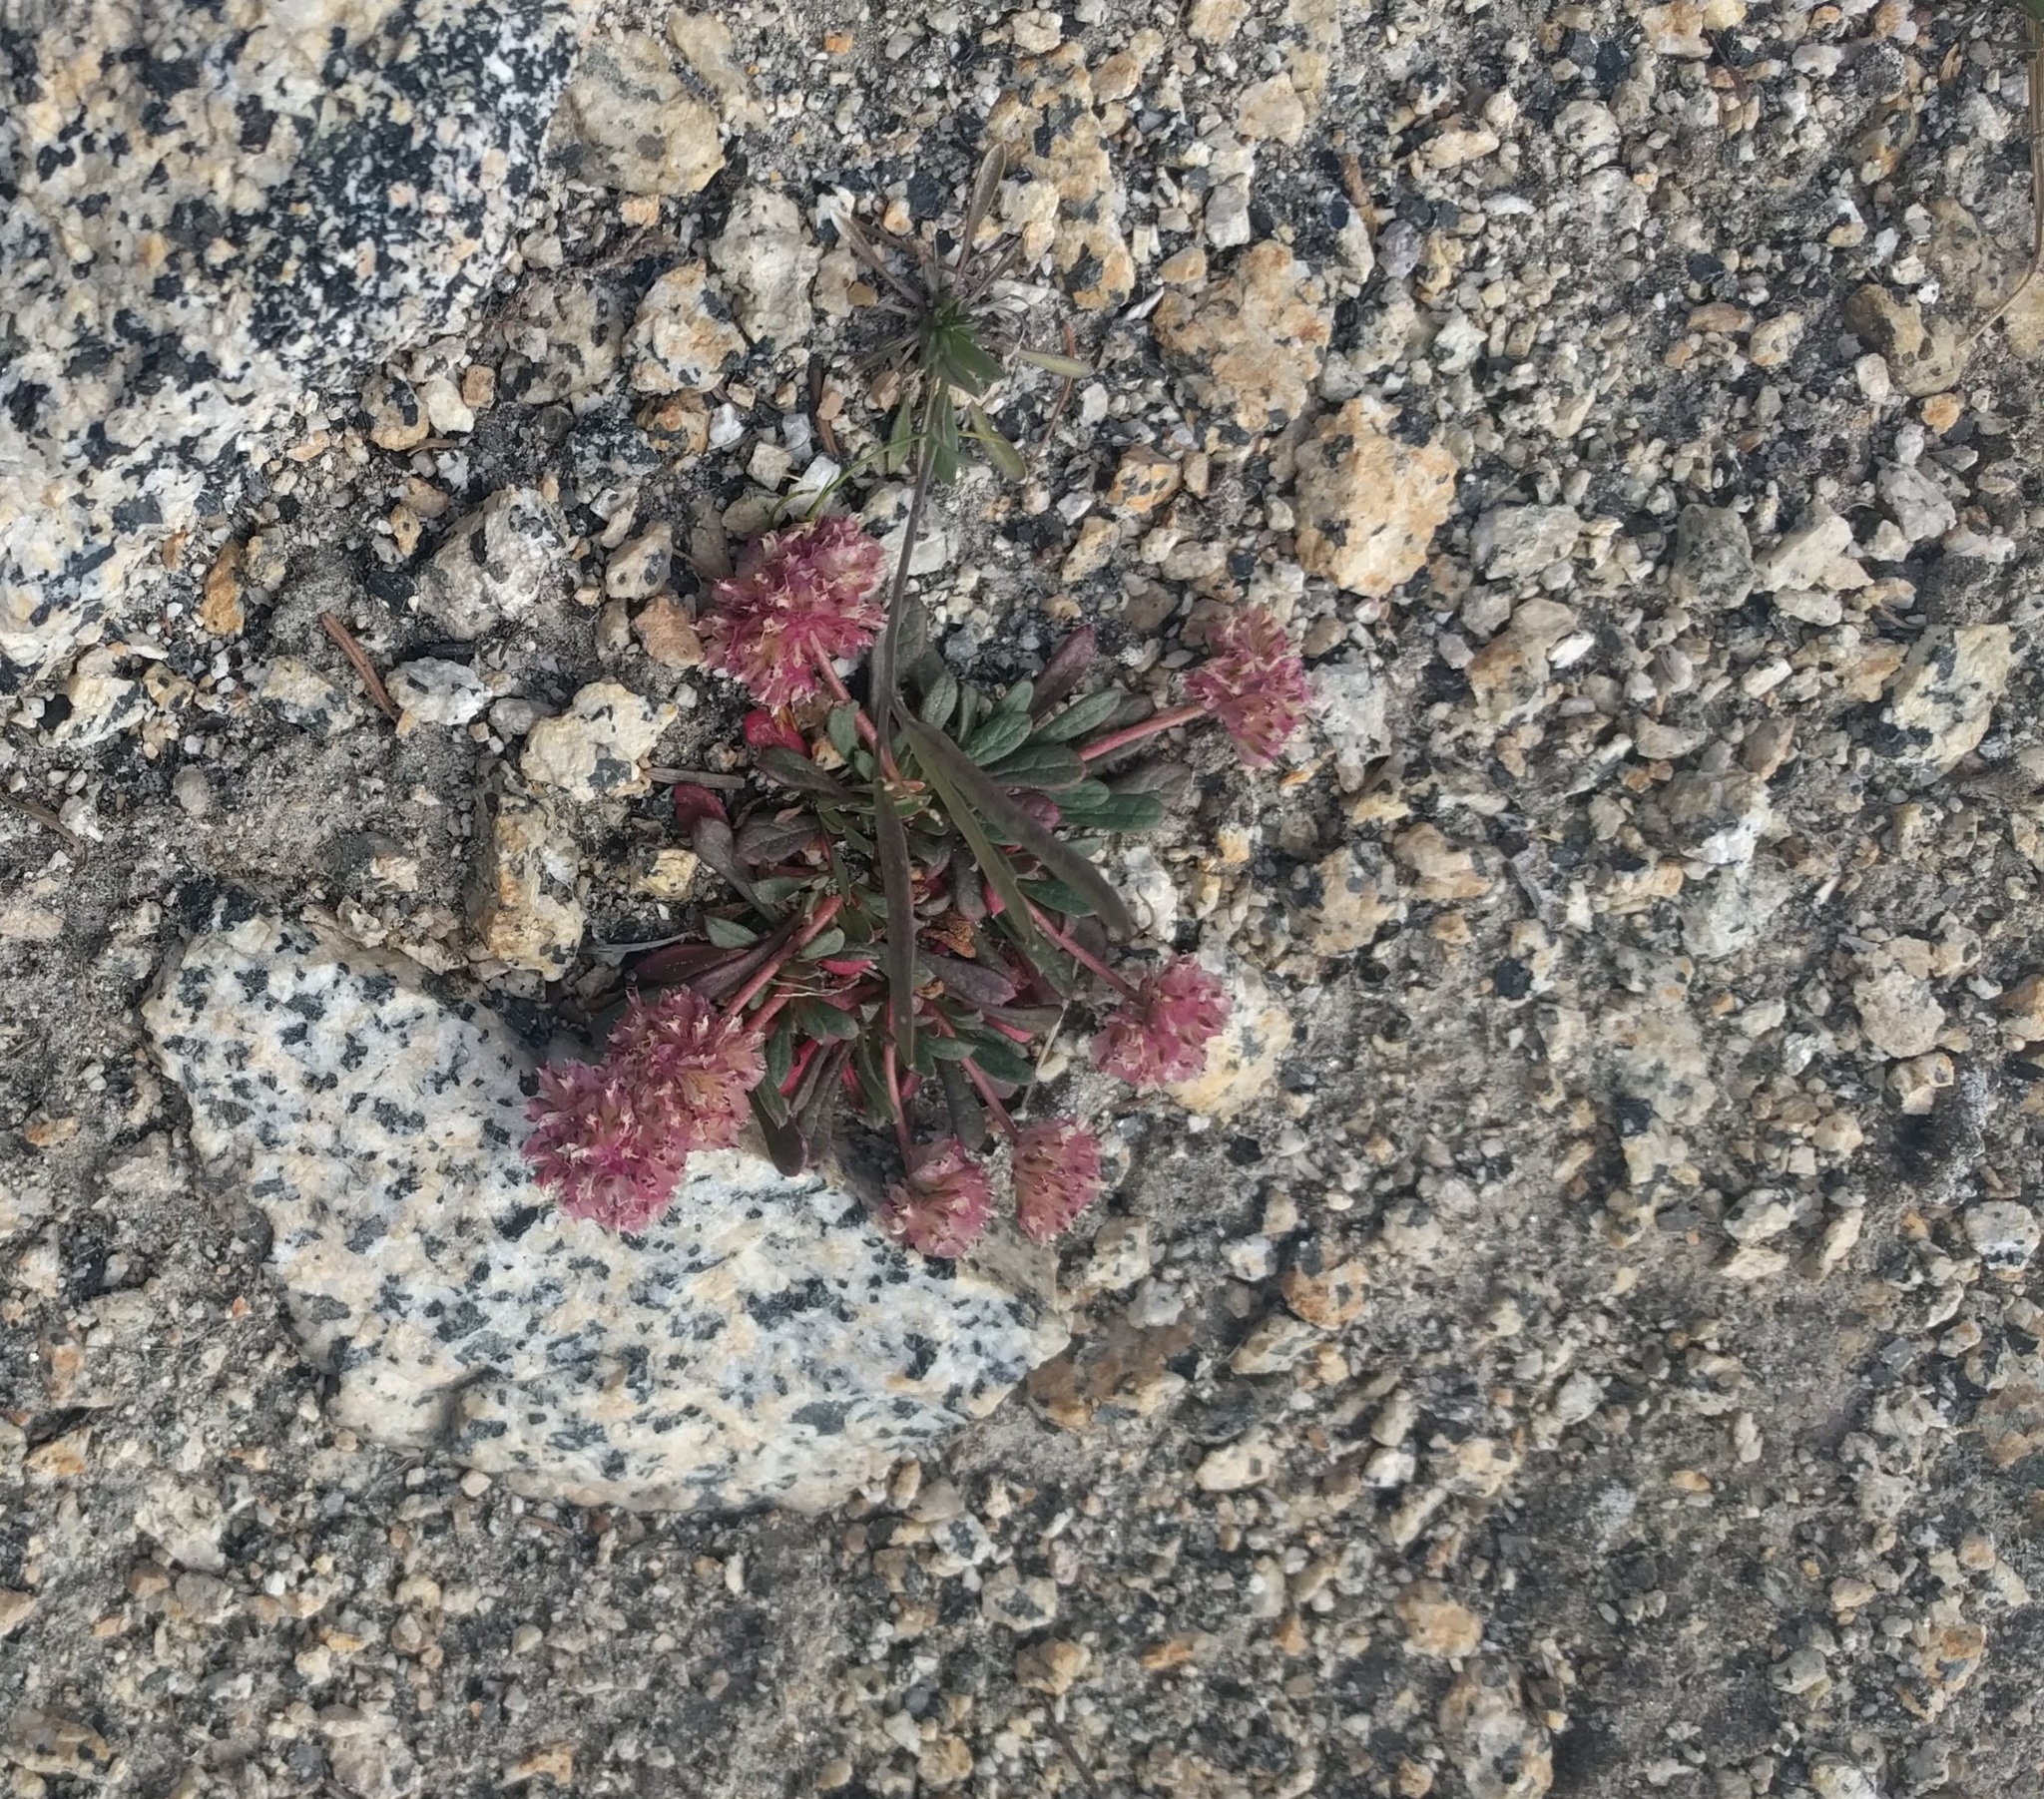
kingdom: Plantae
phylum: Tracheophyta
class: Magnoliopsida
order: Caryophyllales
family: Montiaceae
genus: Calyptridium
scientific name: Calyptridium umbellatum
